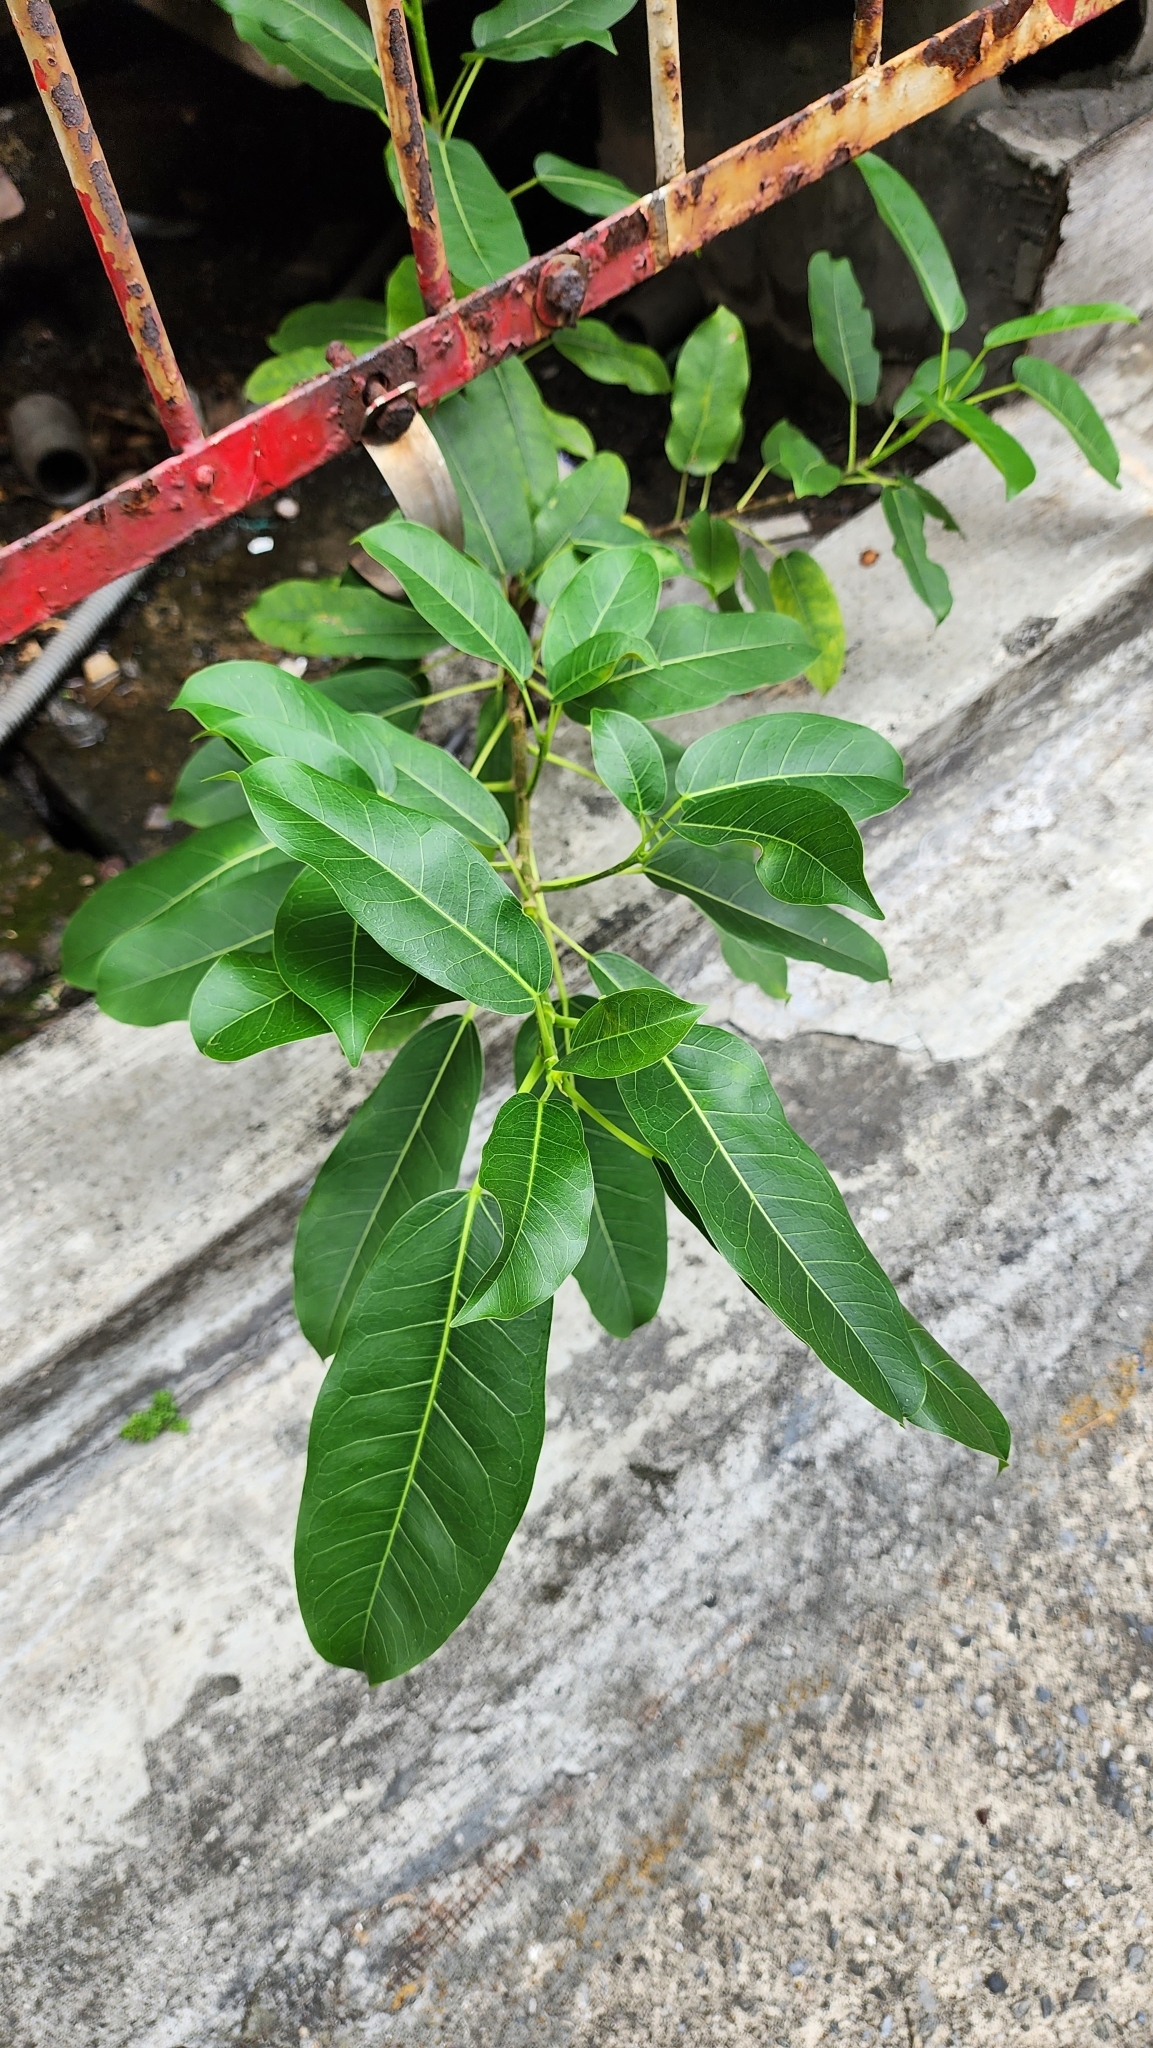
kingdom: Plantae
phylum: Tracheophyta
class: Magnoliopsida
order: Rosales
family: Moraceae
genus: Ficus
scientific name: Ficus subpisocarpa
